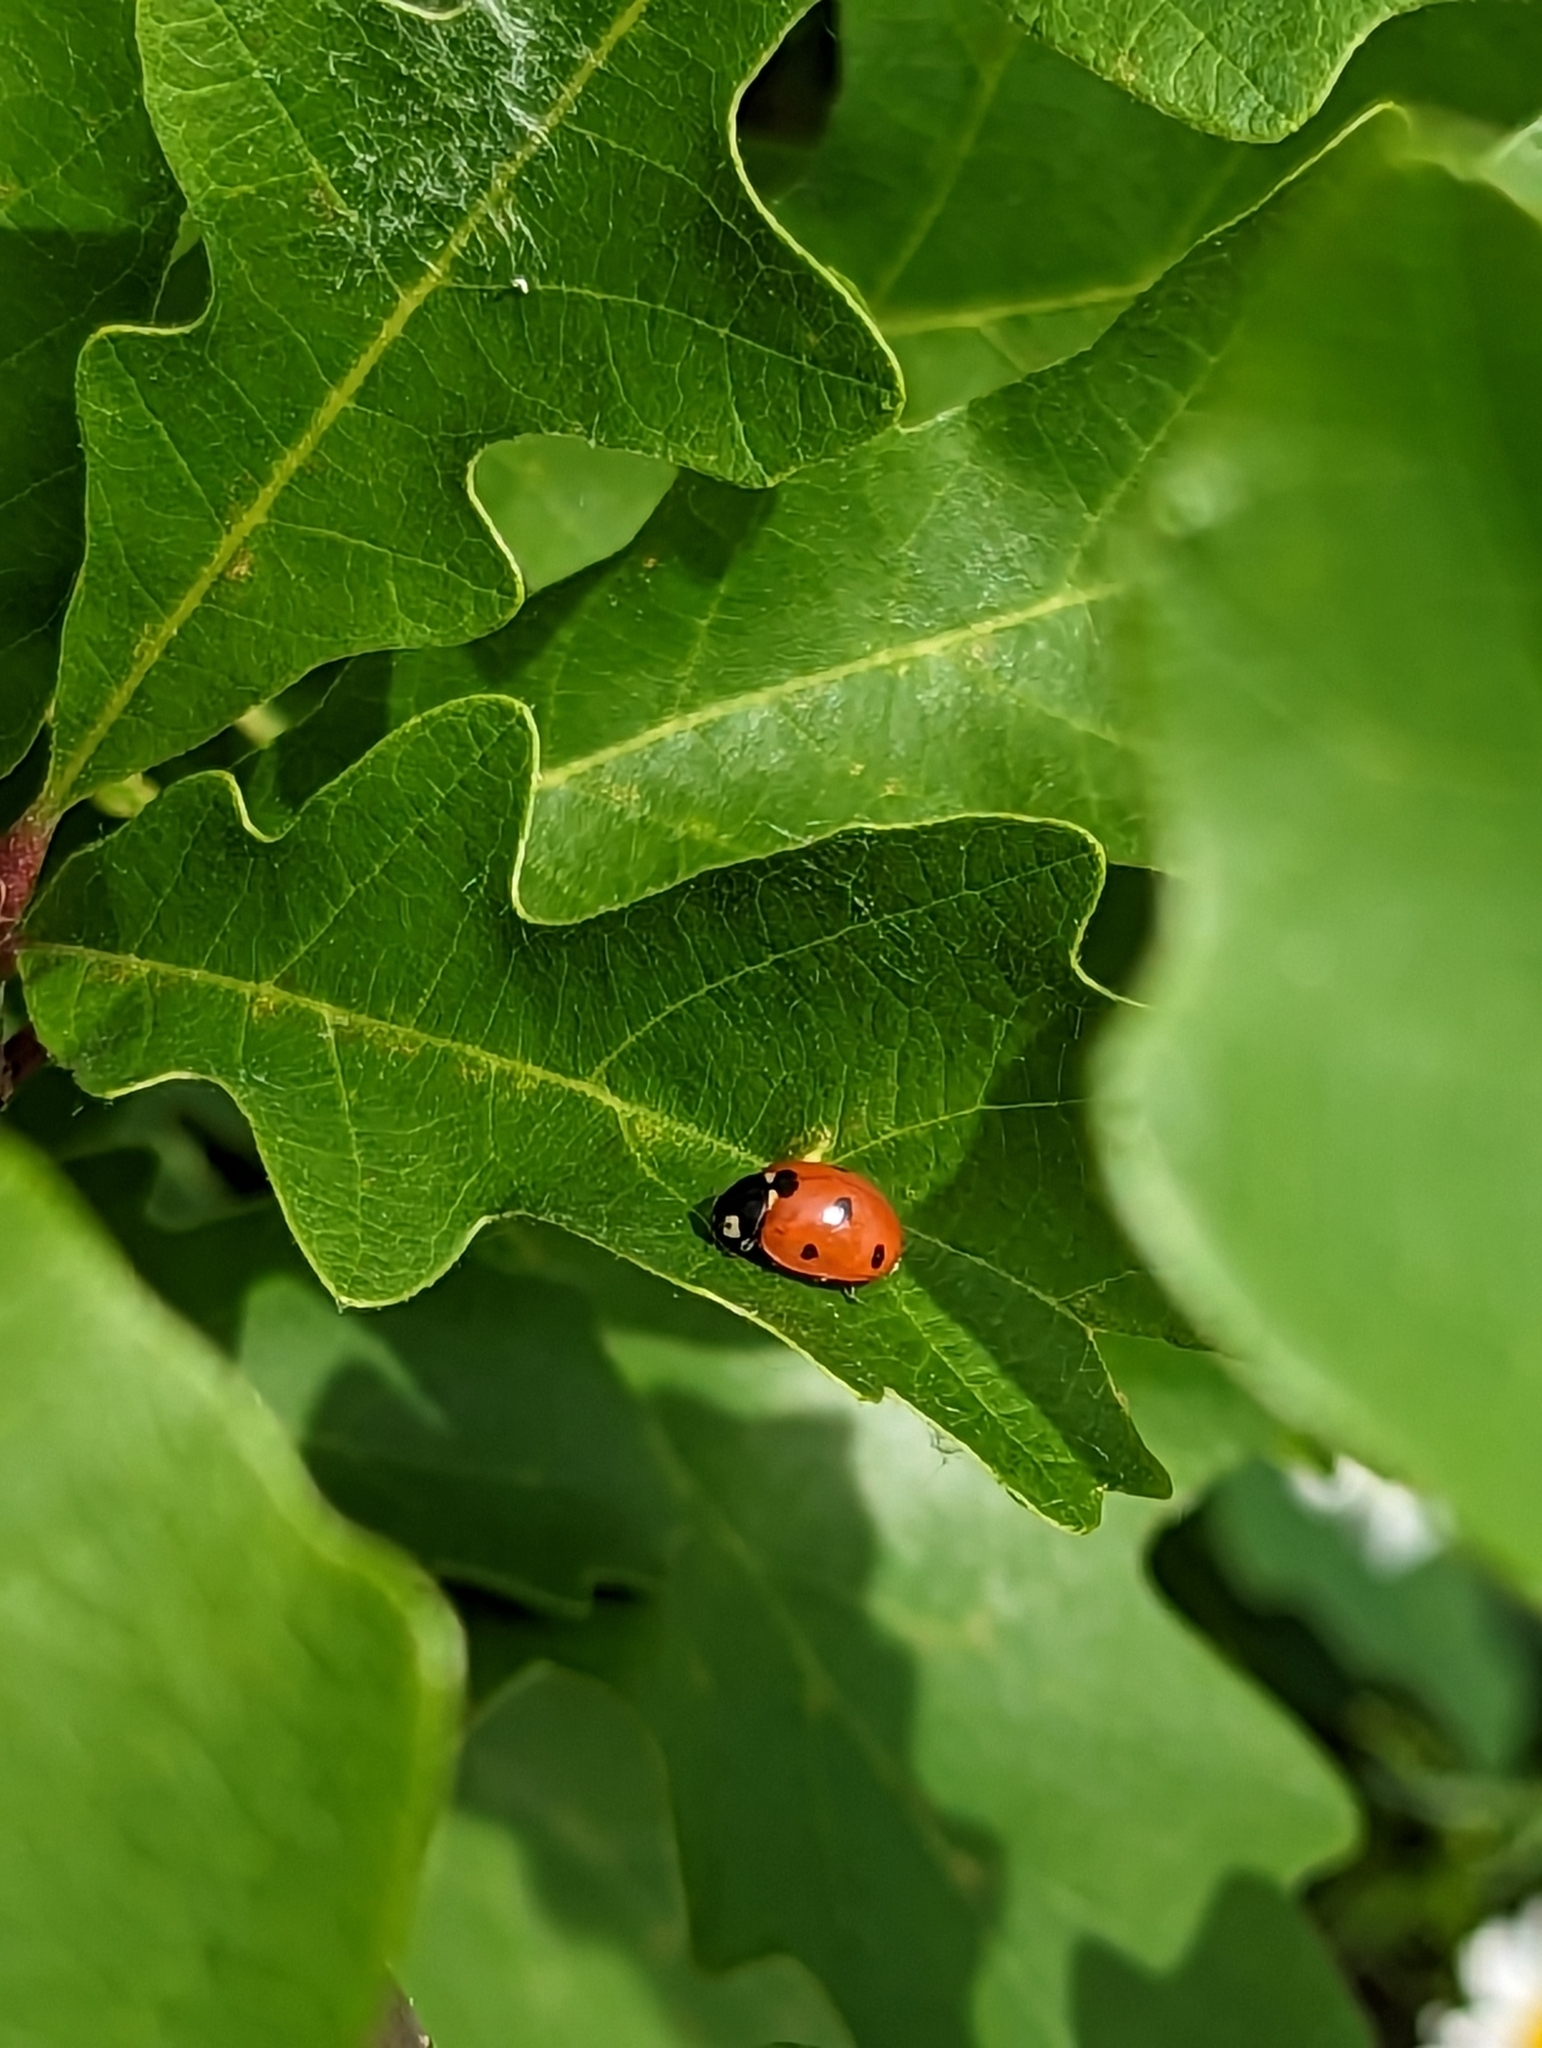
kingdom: Animalia
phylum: Arthropoda
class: Insecta
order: Coleoptera
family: Coccinellidae
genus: Coccinella
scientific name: Coccinella septempunctata
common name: Sevenspotted lady beetle
